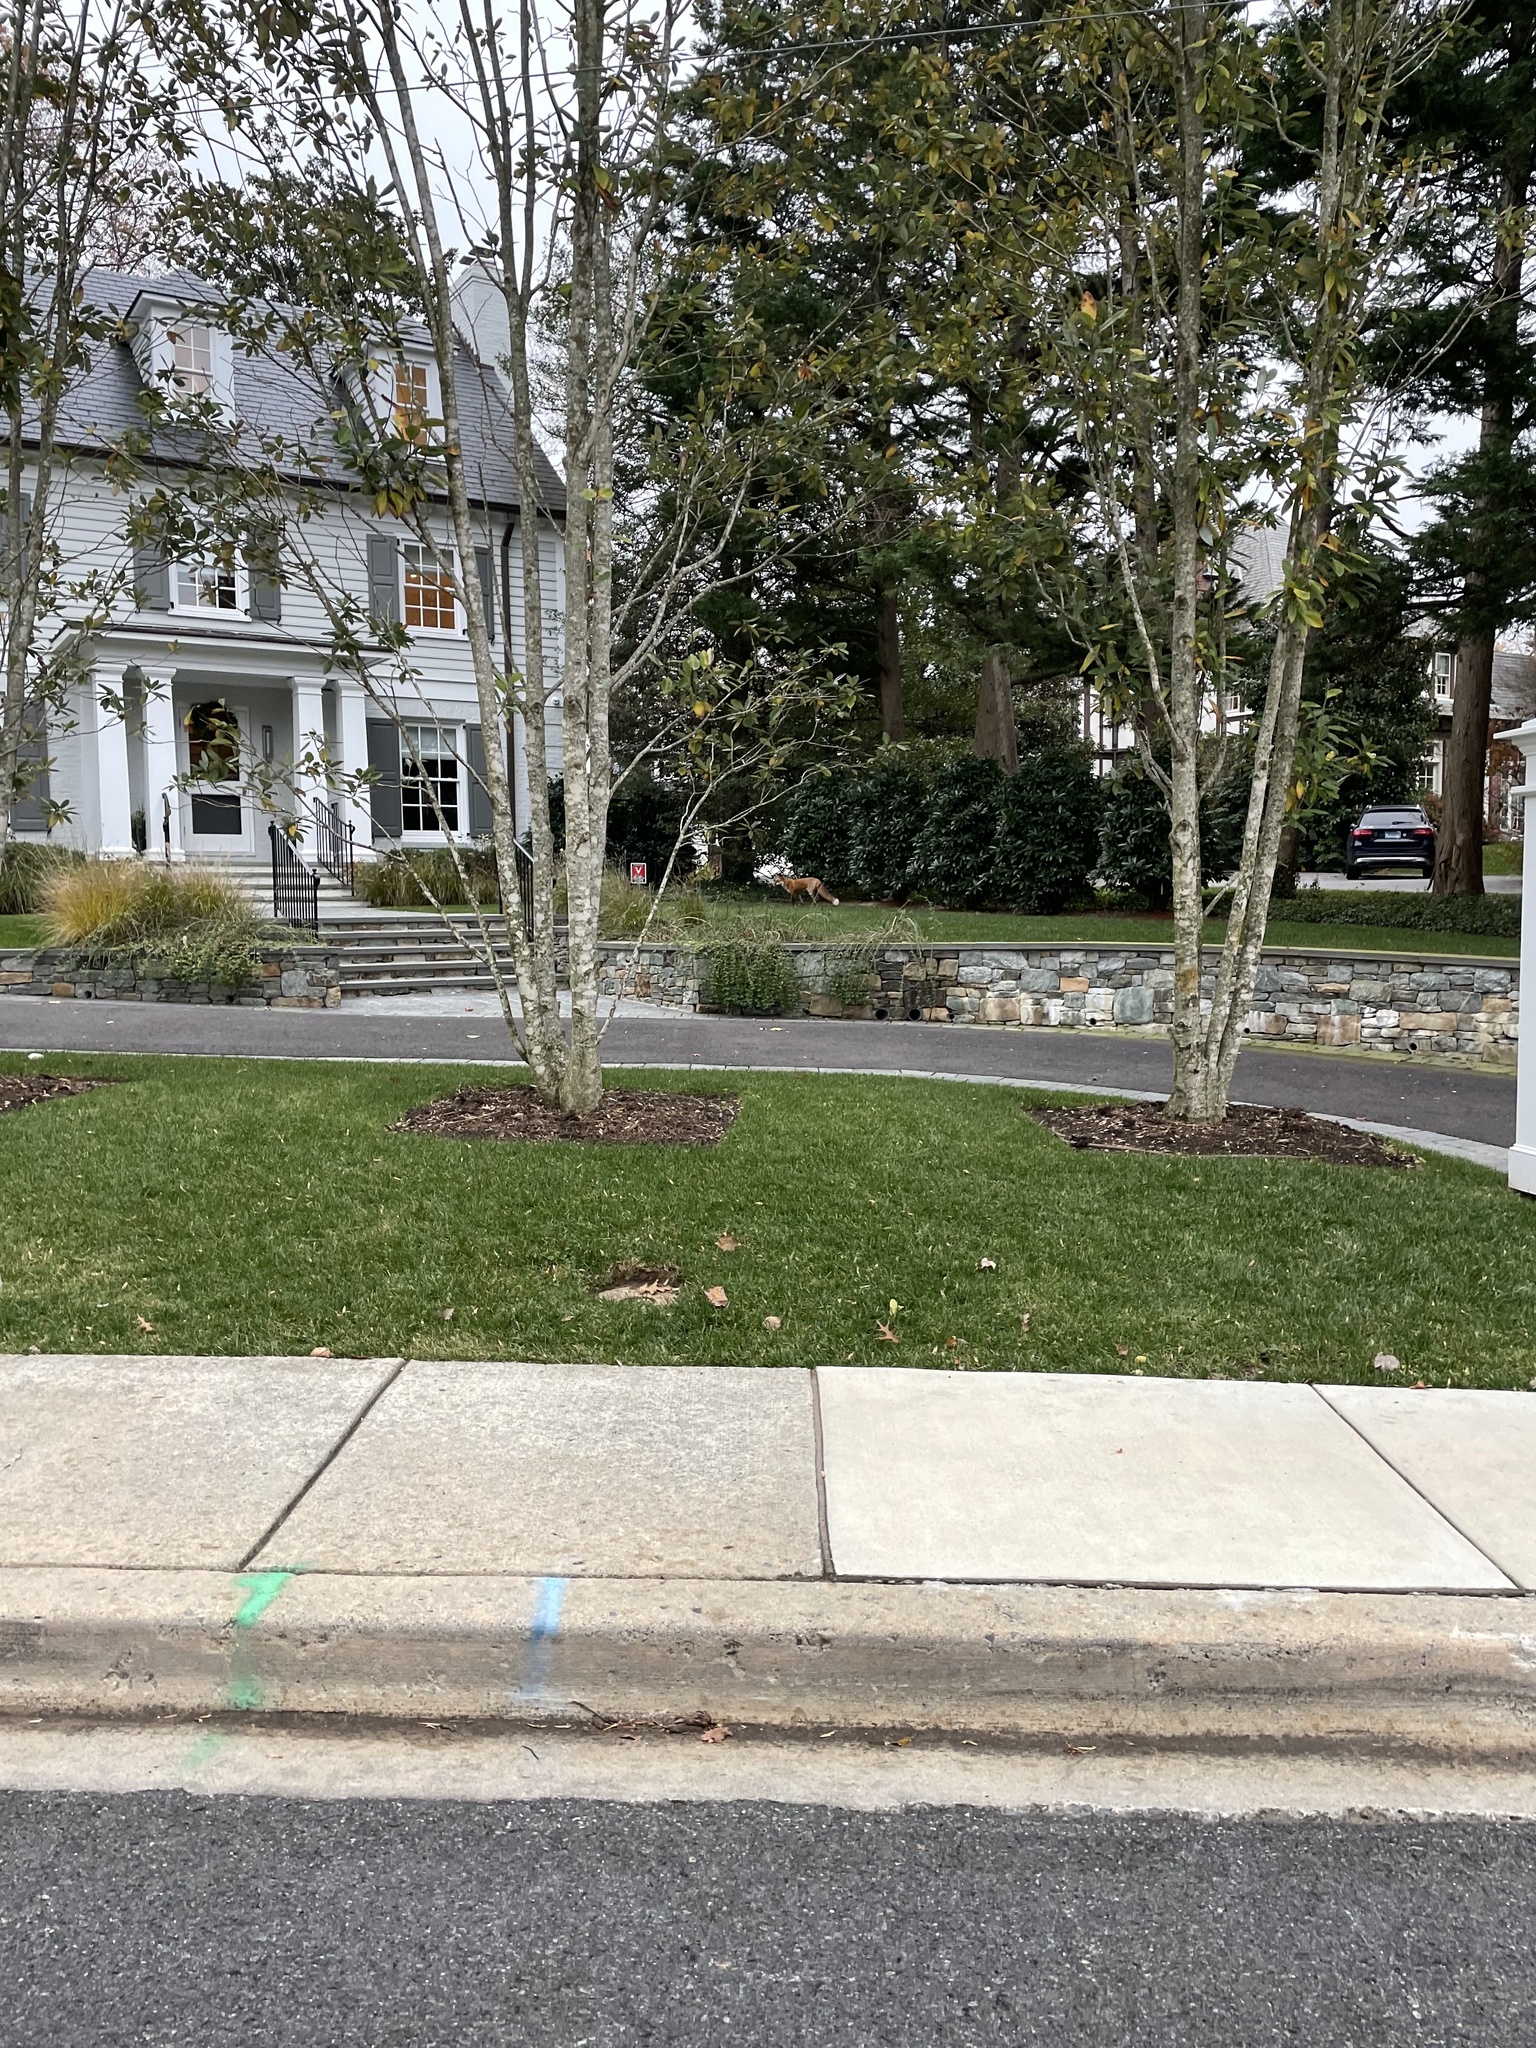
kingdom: Animalia
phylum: Chordata
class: Mammalia
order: Carnivora
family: Canidae
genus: Vulpes
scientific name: Vulpes vulpes
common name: Red fox
